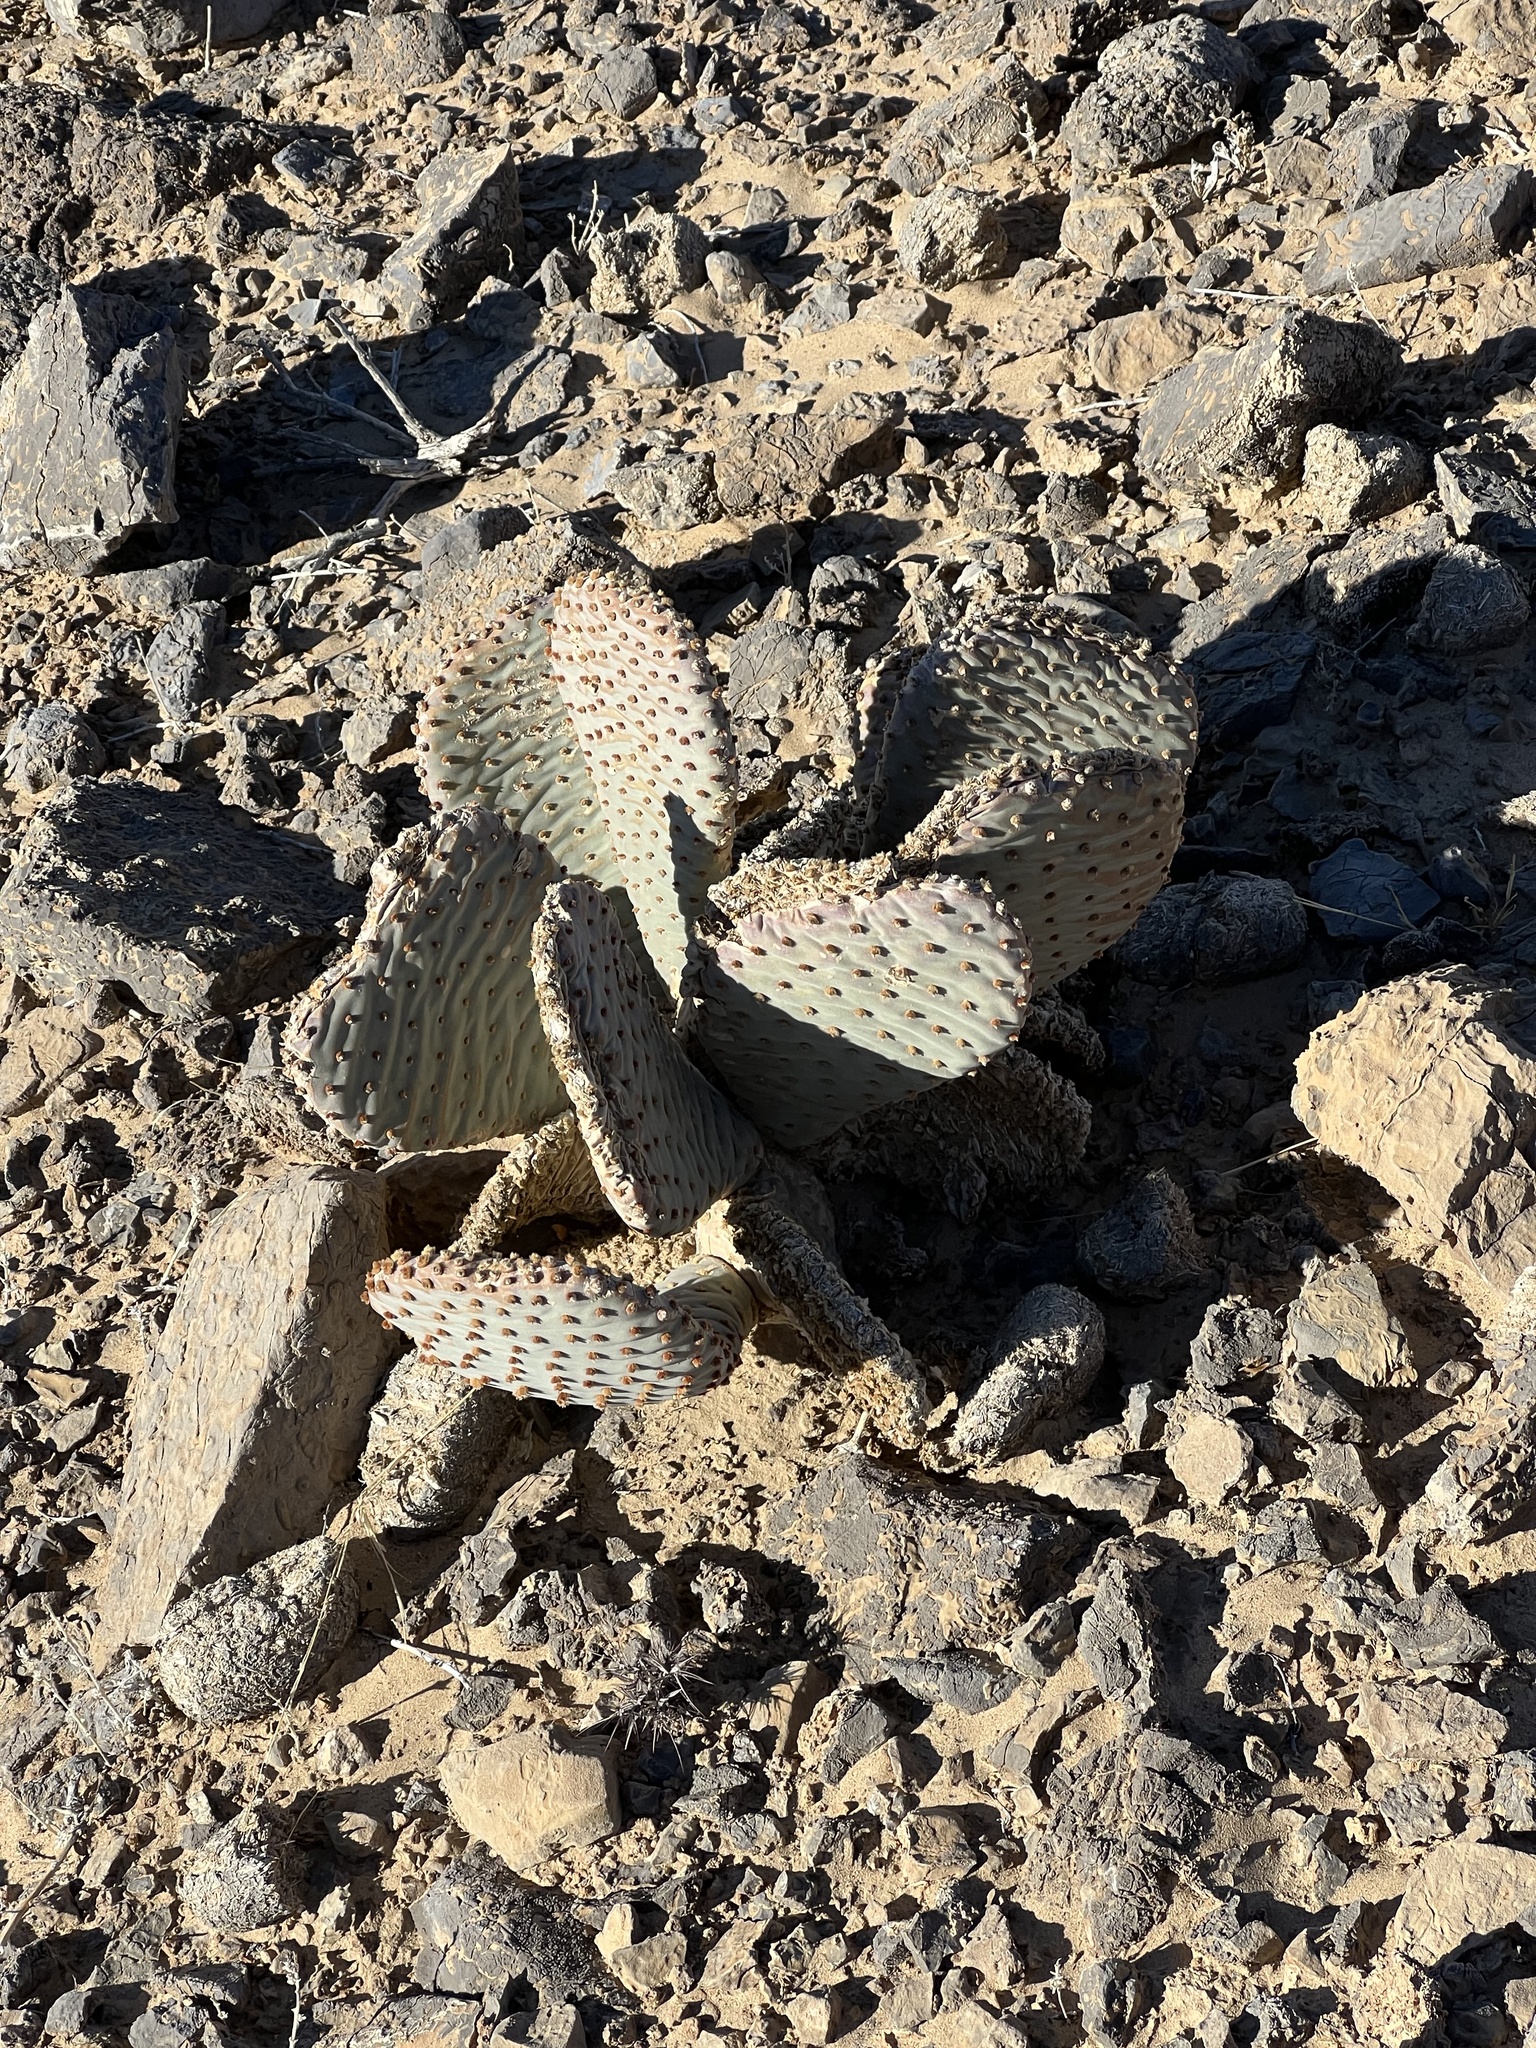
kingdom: Plantae
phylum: Tracheophyta
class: Magnoliopsida
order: Caryophyllales
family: Cactaceae
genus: Opuntia
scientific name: Opuntia basilaris
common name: Beavertail prickly-pear
